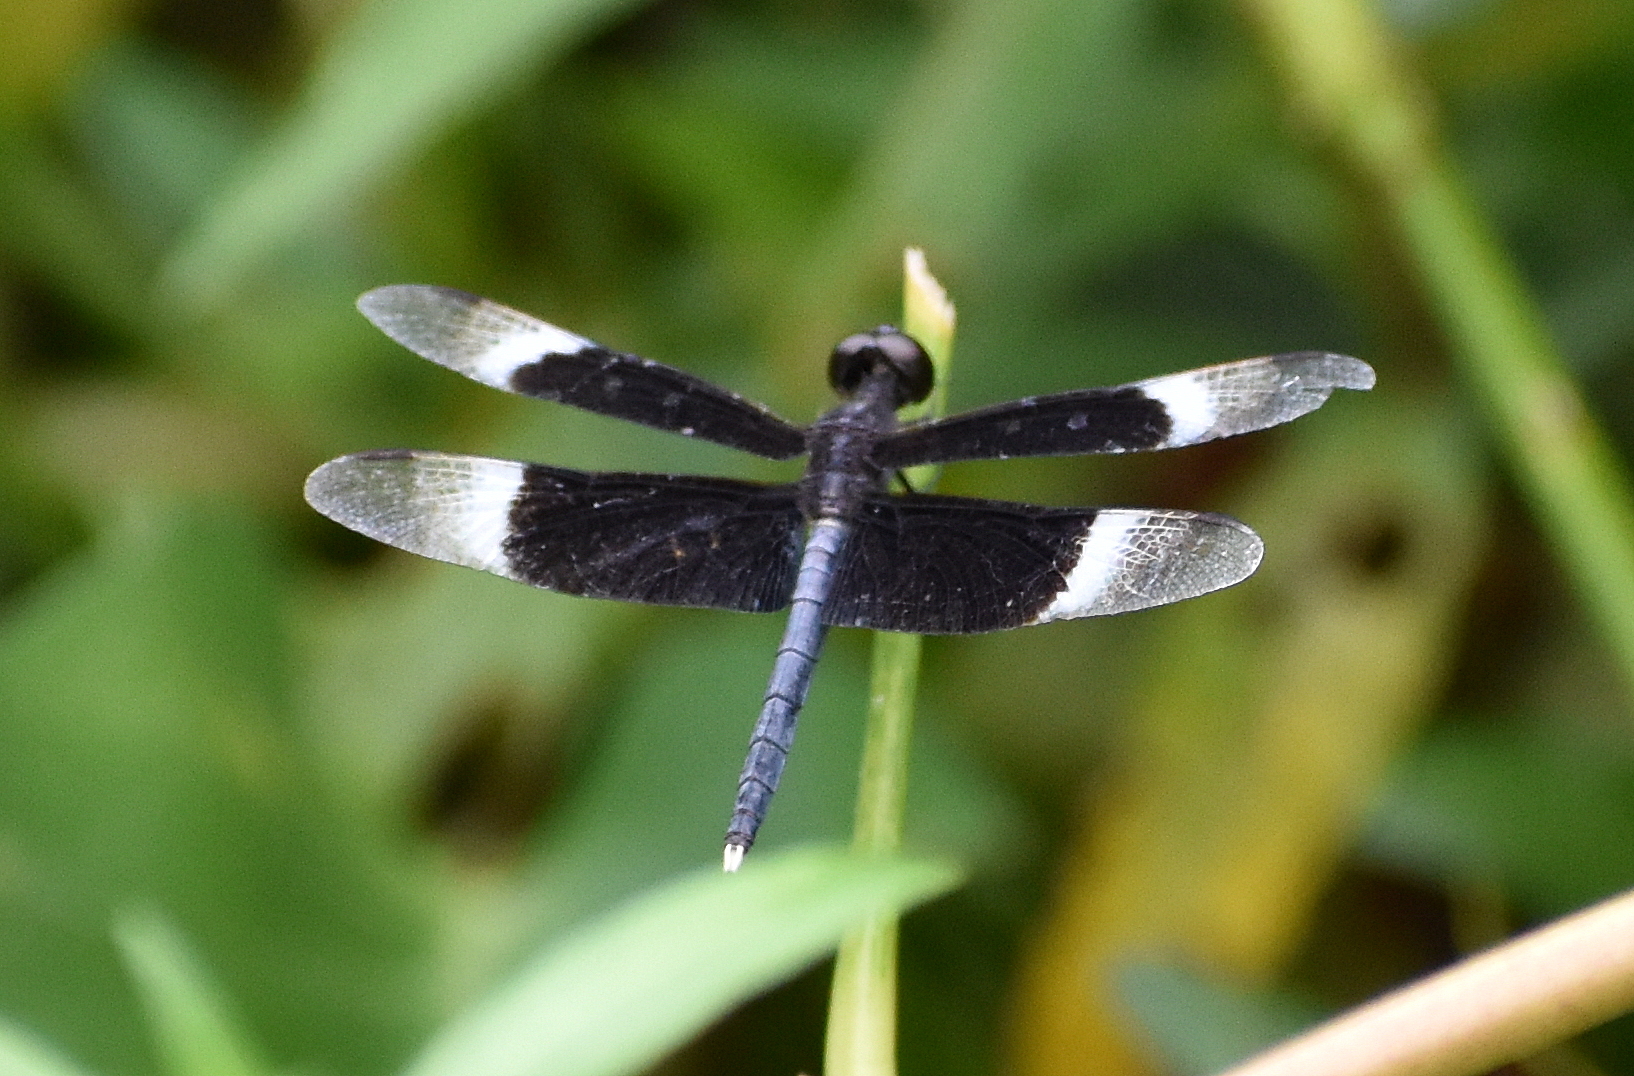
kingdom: Animalia
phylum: Arthropoda
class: Insecta
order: Odonata
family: Libellulidae
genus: Neurothemis
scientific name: Neurothemis tullia
